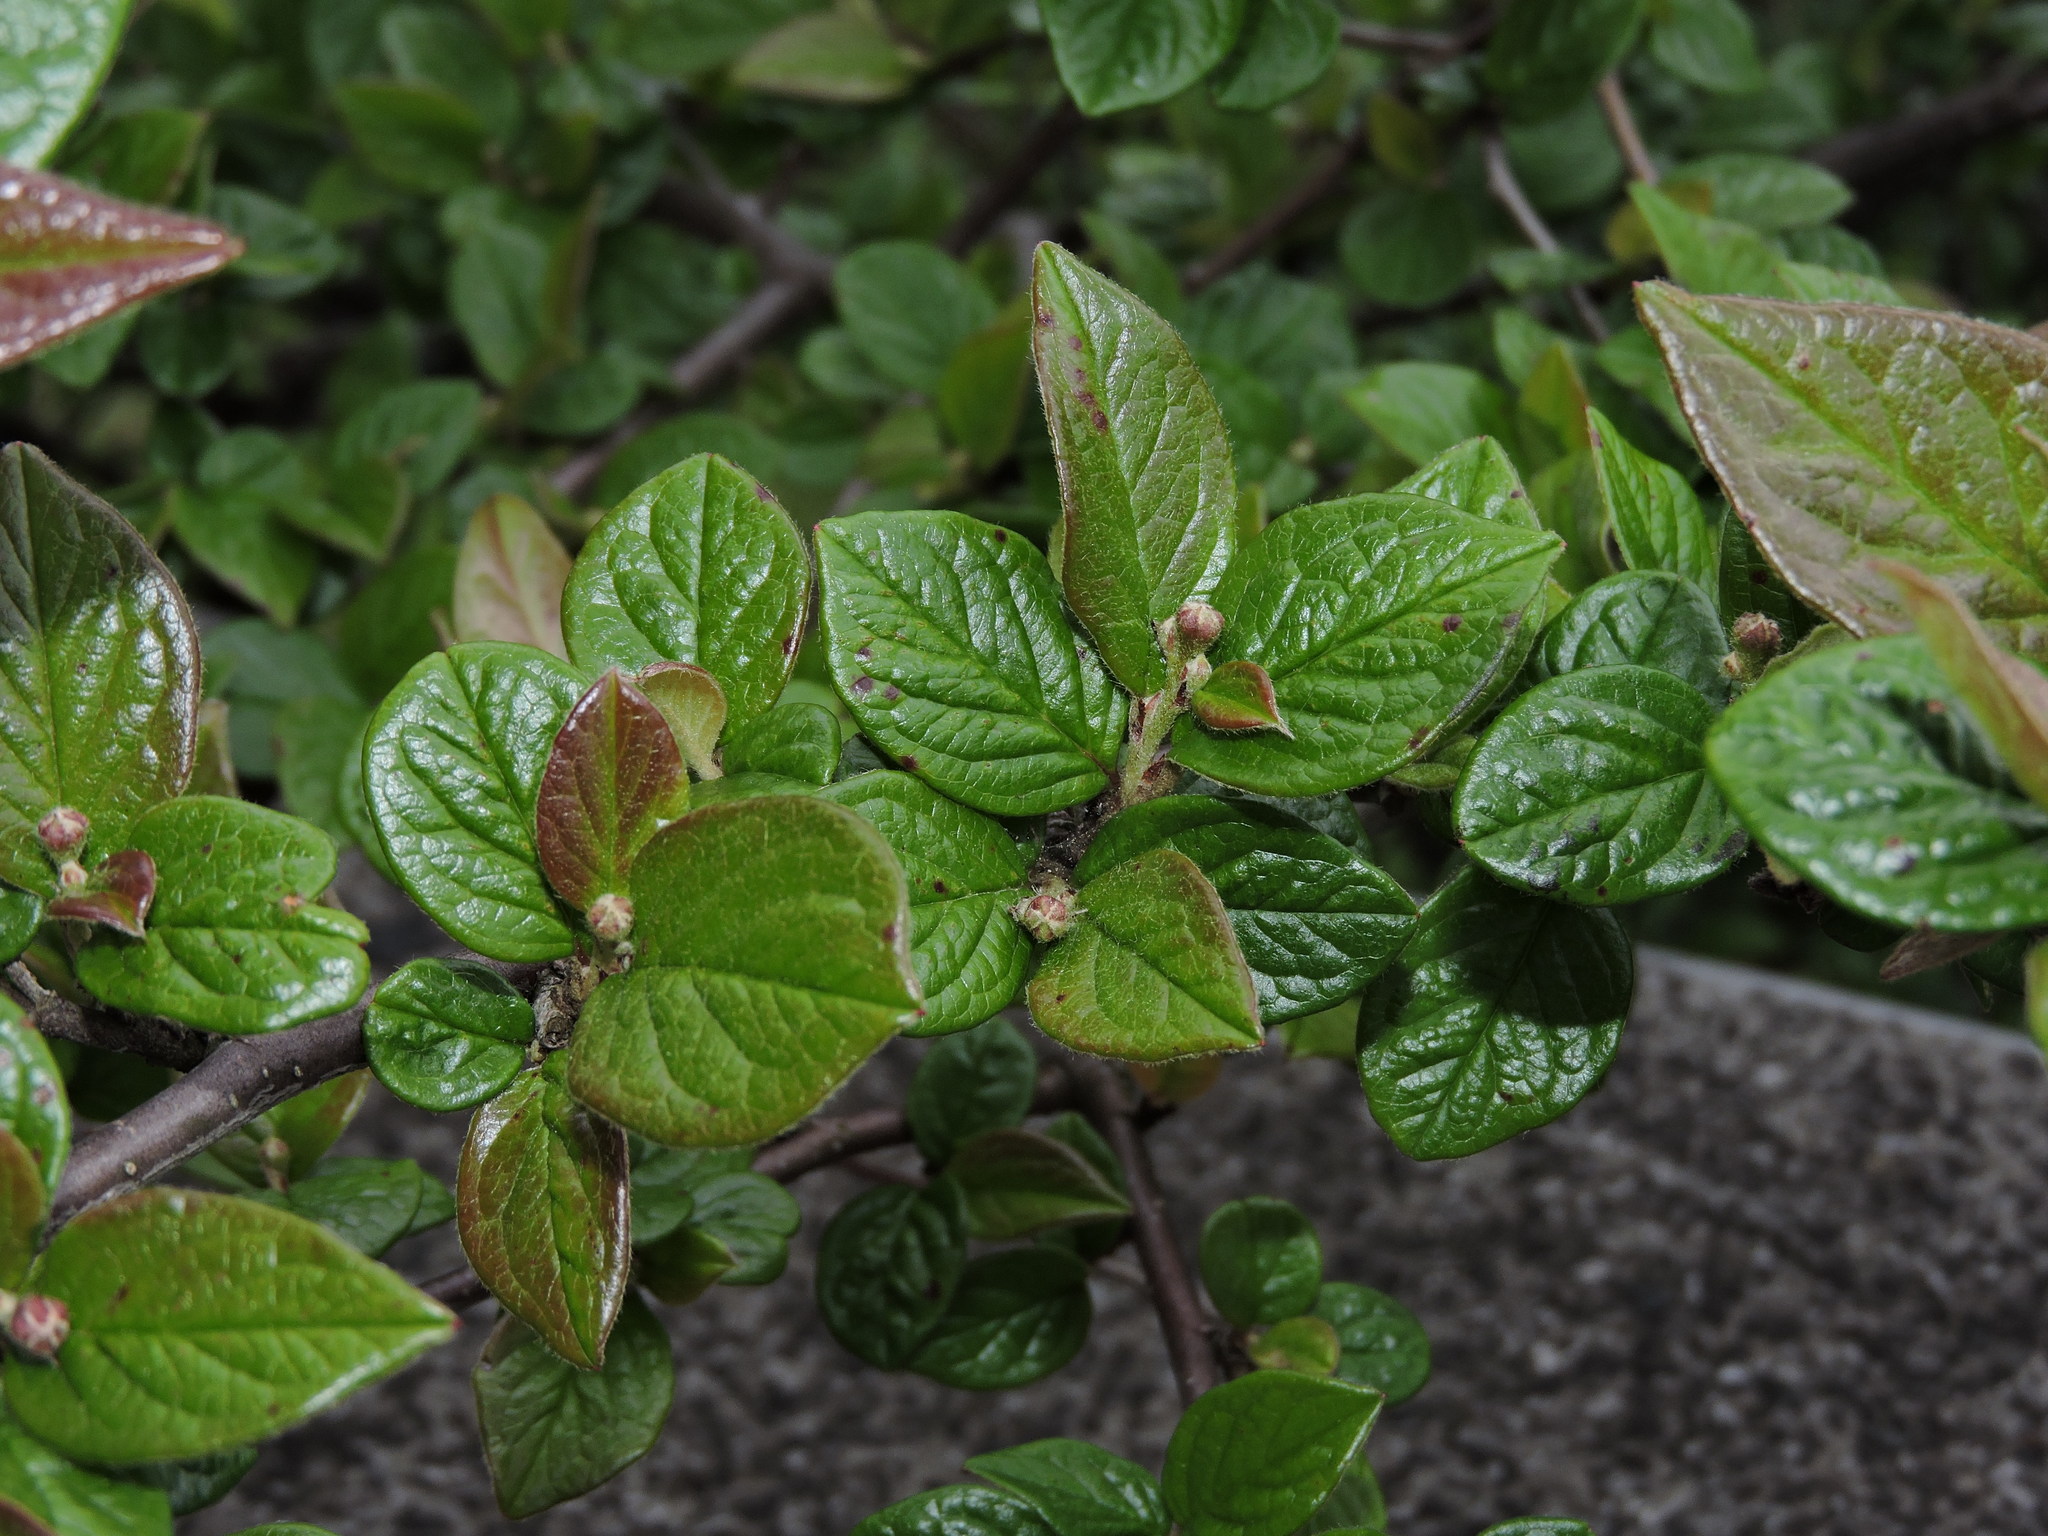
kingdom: Plantae
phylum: Tracheophyta
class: Magnoliopsida
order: Rosales
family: Rosaceae
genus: Cotoneaster
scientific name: Cotoneaster konishii
